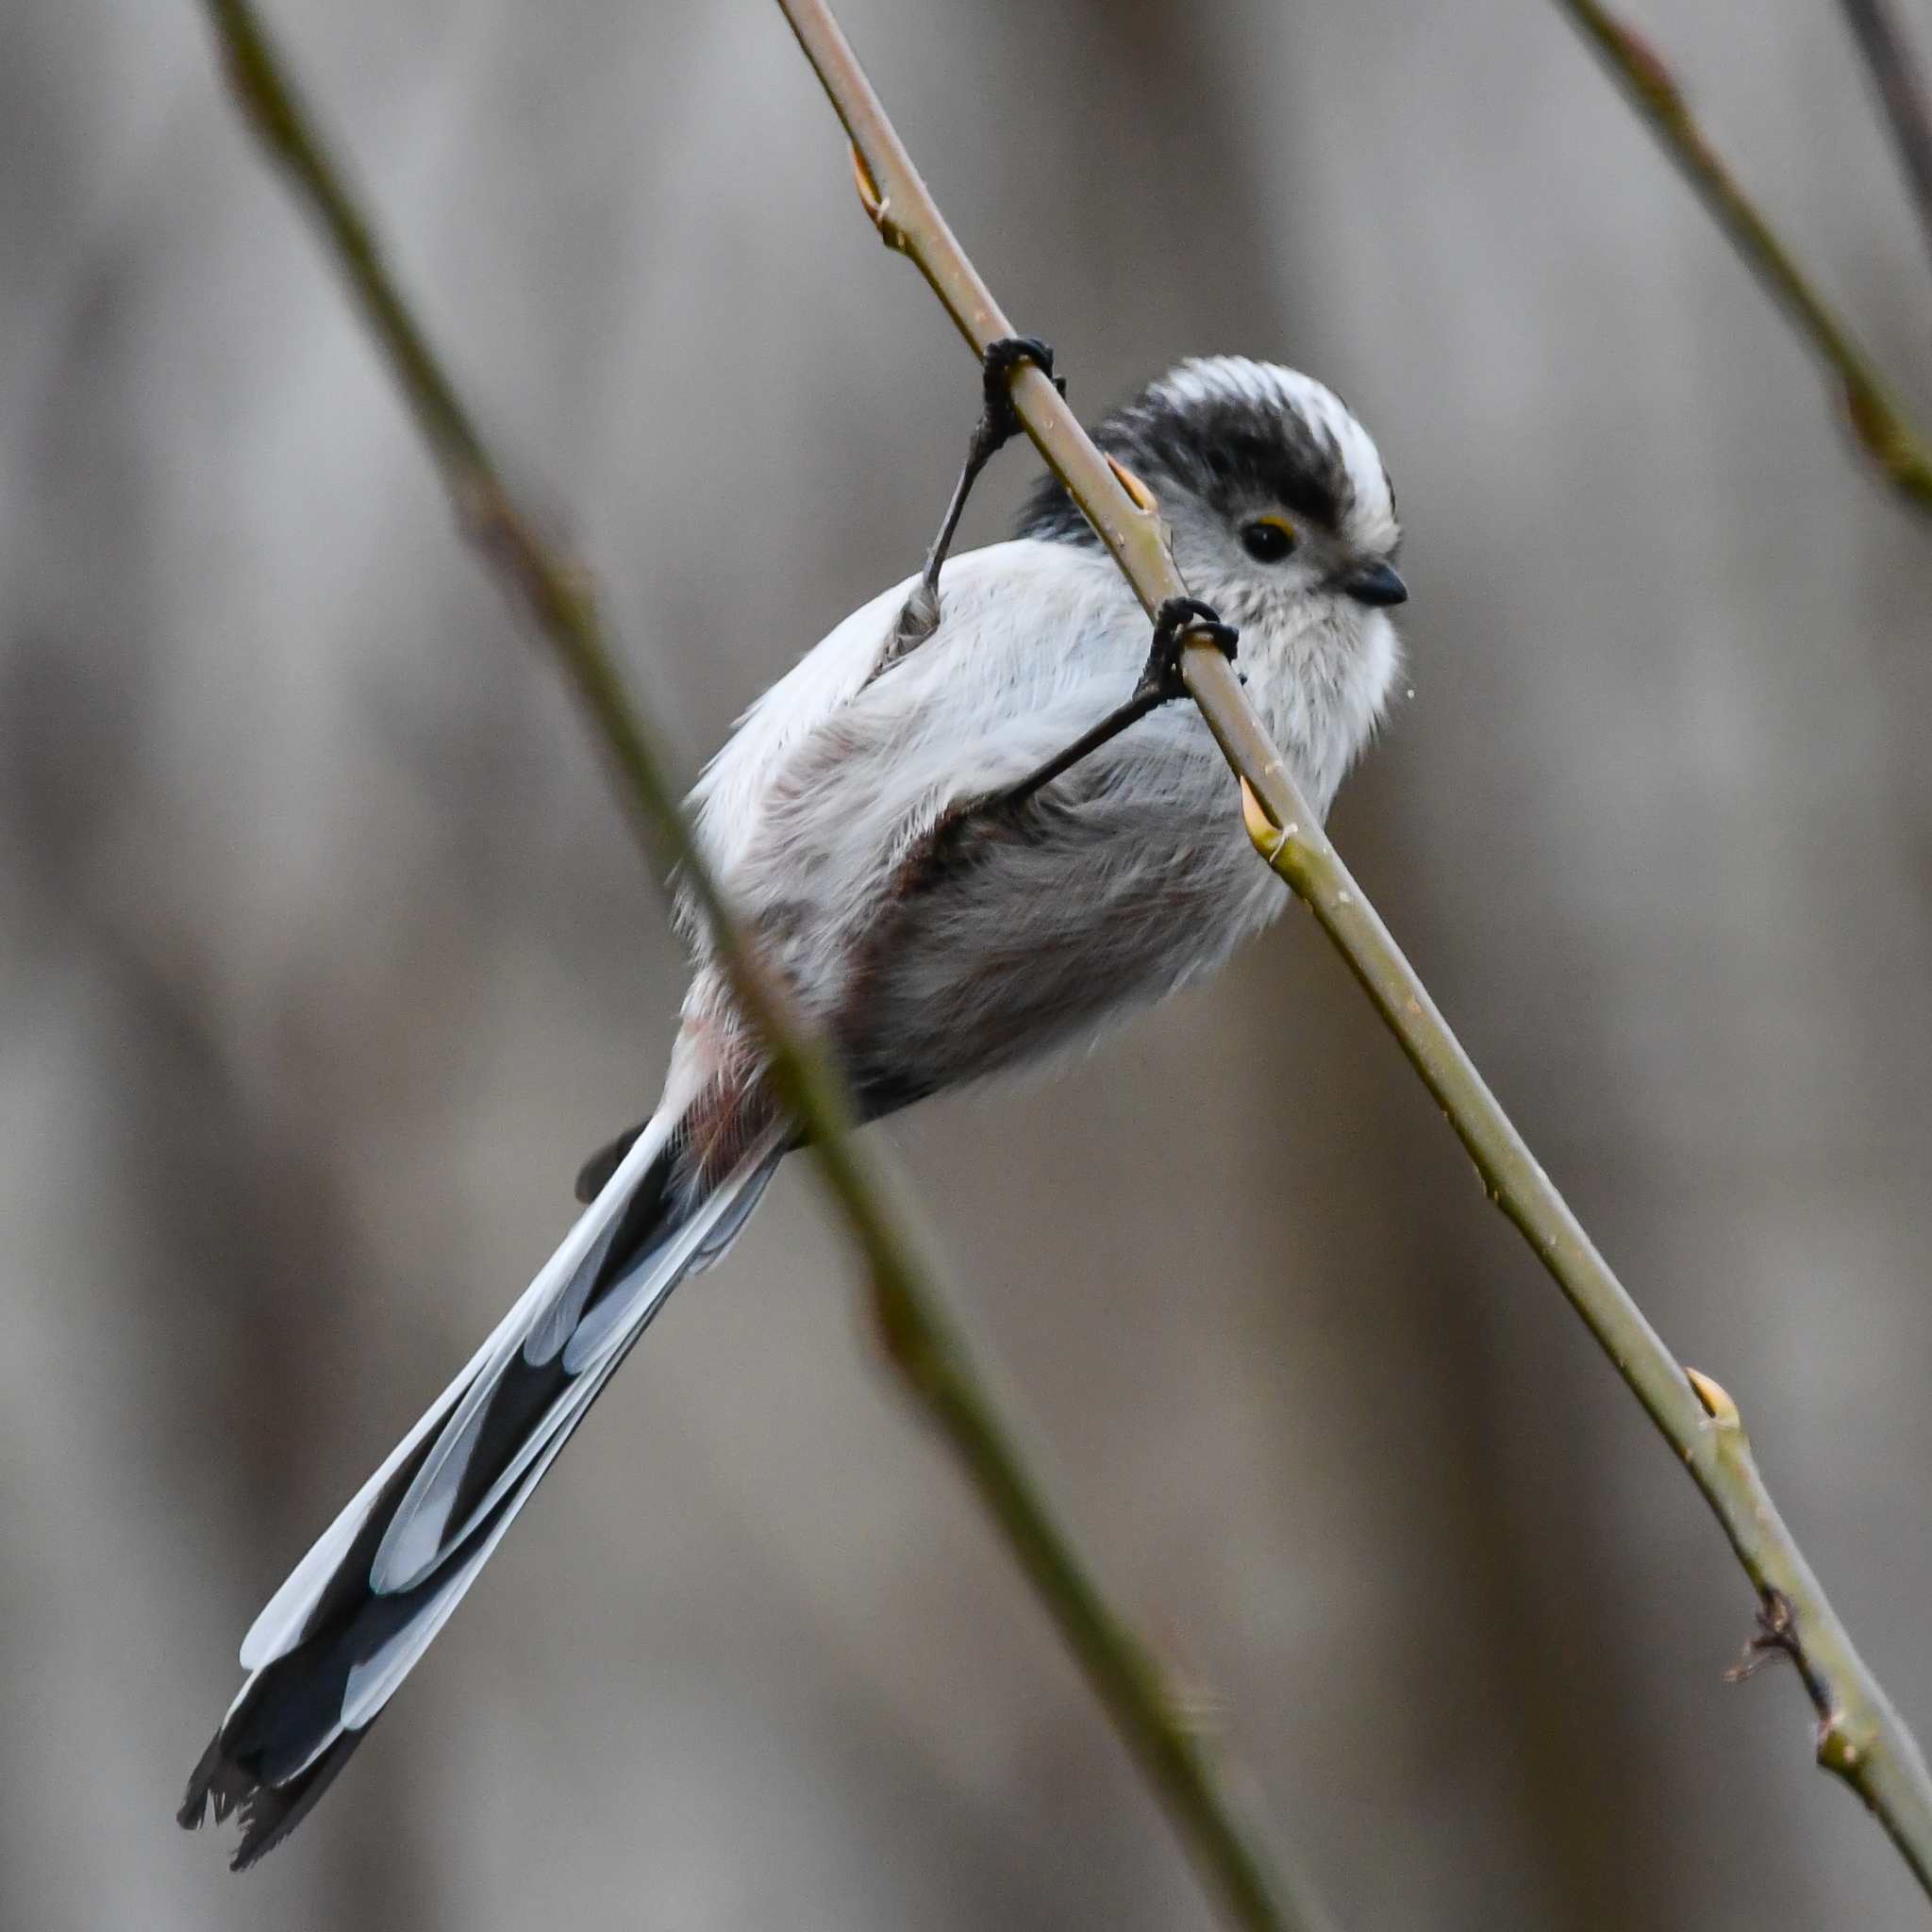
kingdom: Animalia
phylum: Chordata
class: Aves
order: Passeriformes
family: Aegithalidae
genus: Aegithalos
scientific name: Aegithalos caudatus
